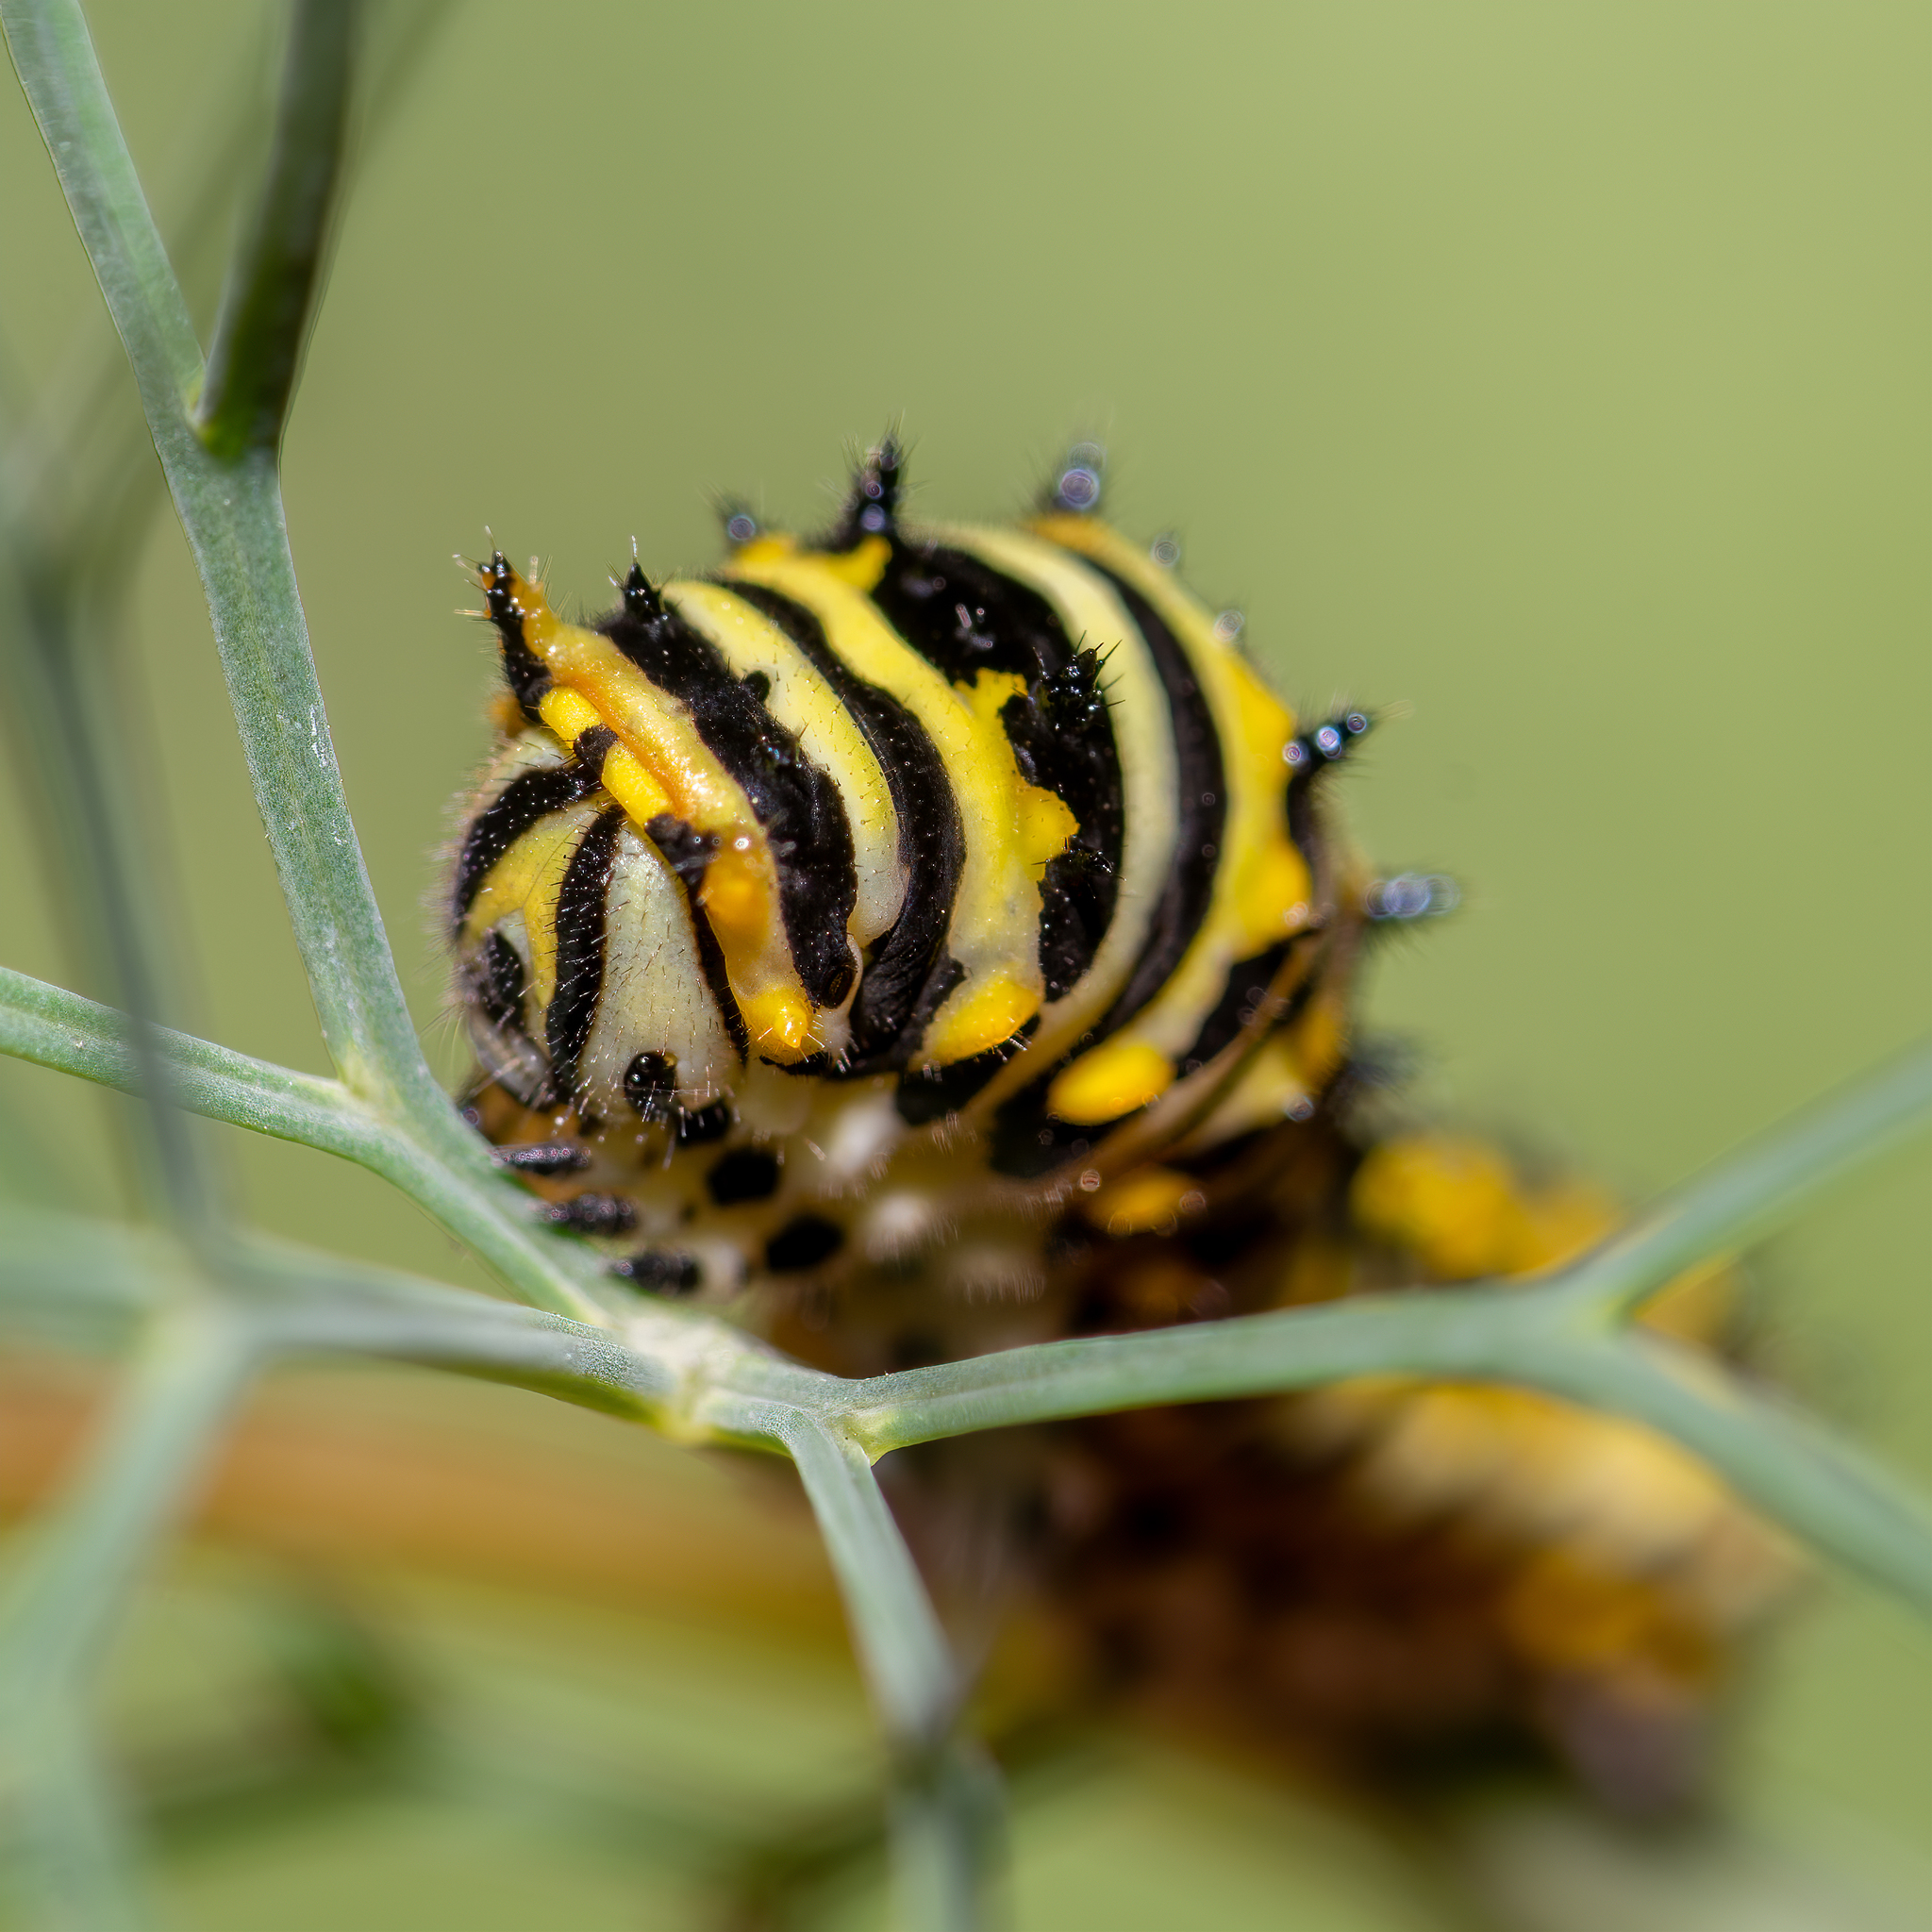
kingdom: Animalia
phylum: Arthropoda
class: Insecta
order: Lepidoptera
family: Papilionidae
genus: Papilio
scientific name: Papilio polyxenes
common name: Black swallowtail
